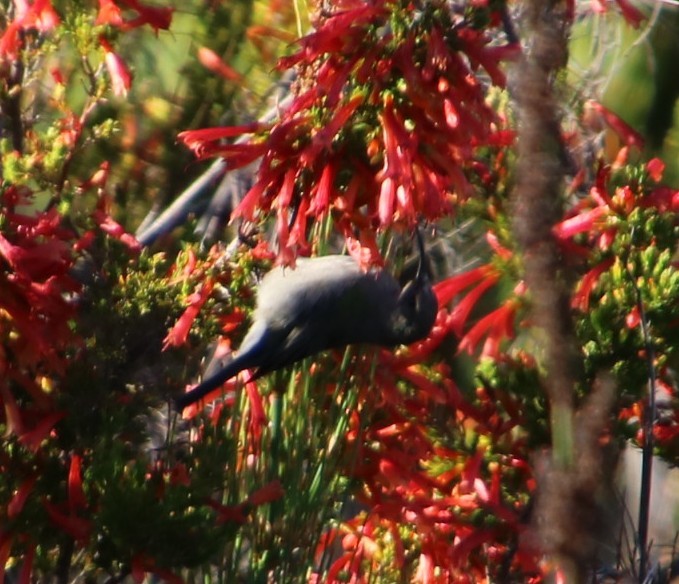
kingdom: Animalia
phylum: Chordata
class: Aves
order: Passeriformes
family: Nectariniidae
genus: Cinnyris
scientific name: Cinnyris chalybeus
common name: Southern double-collared sunbird
